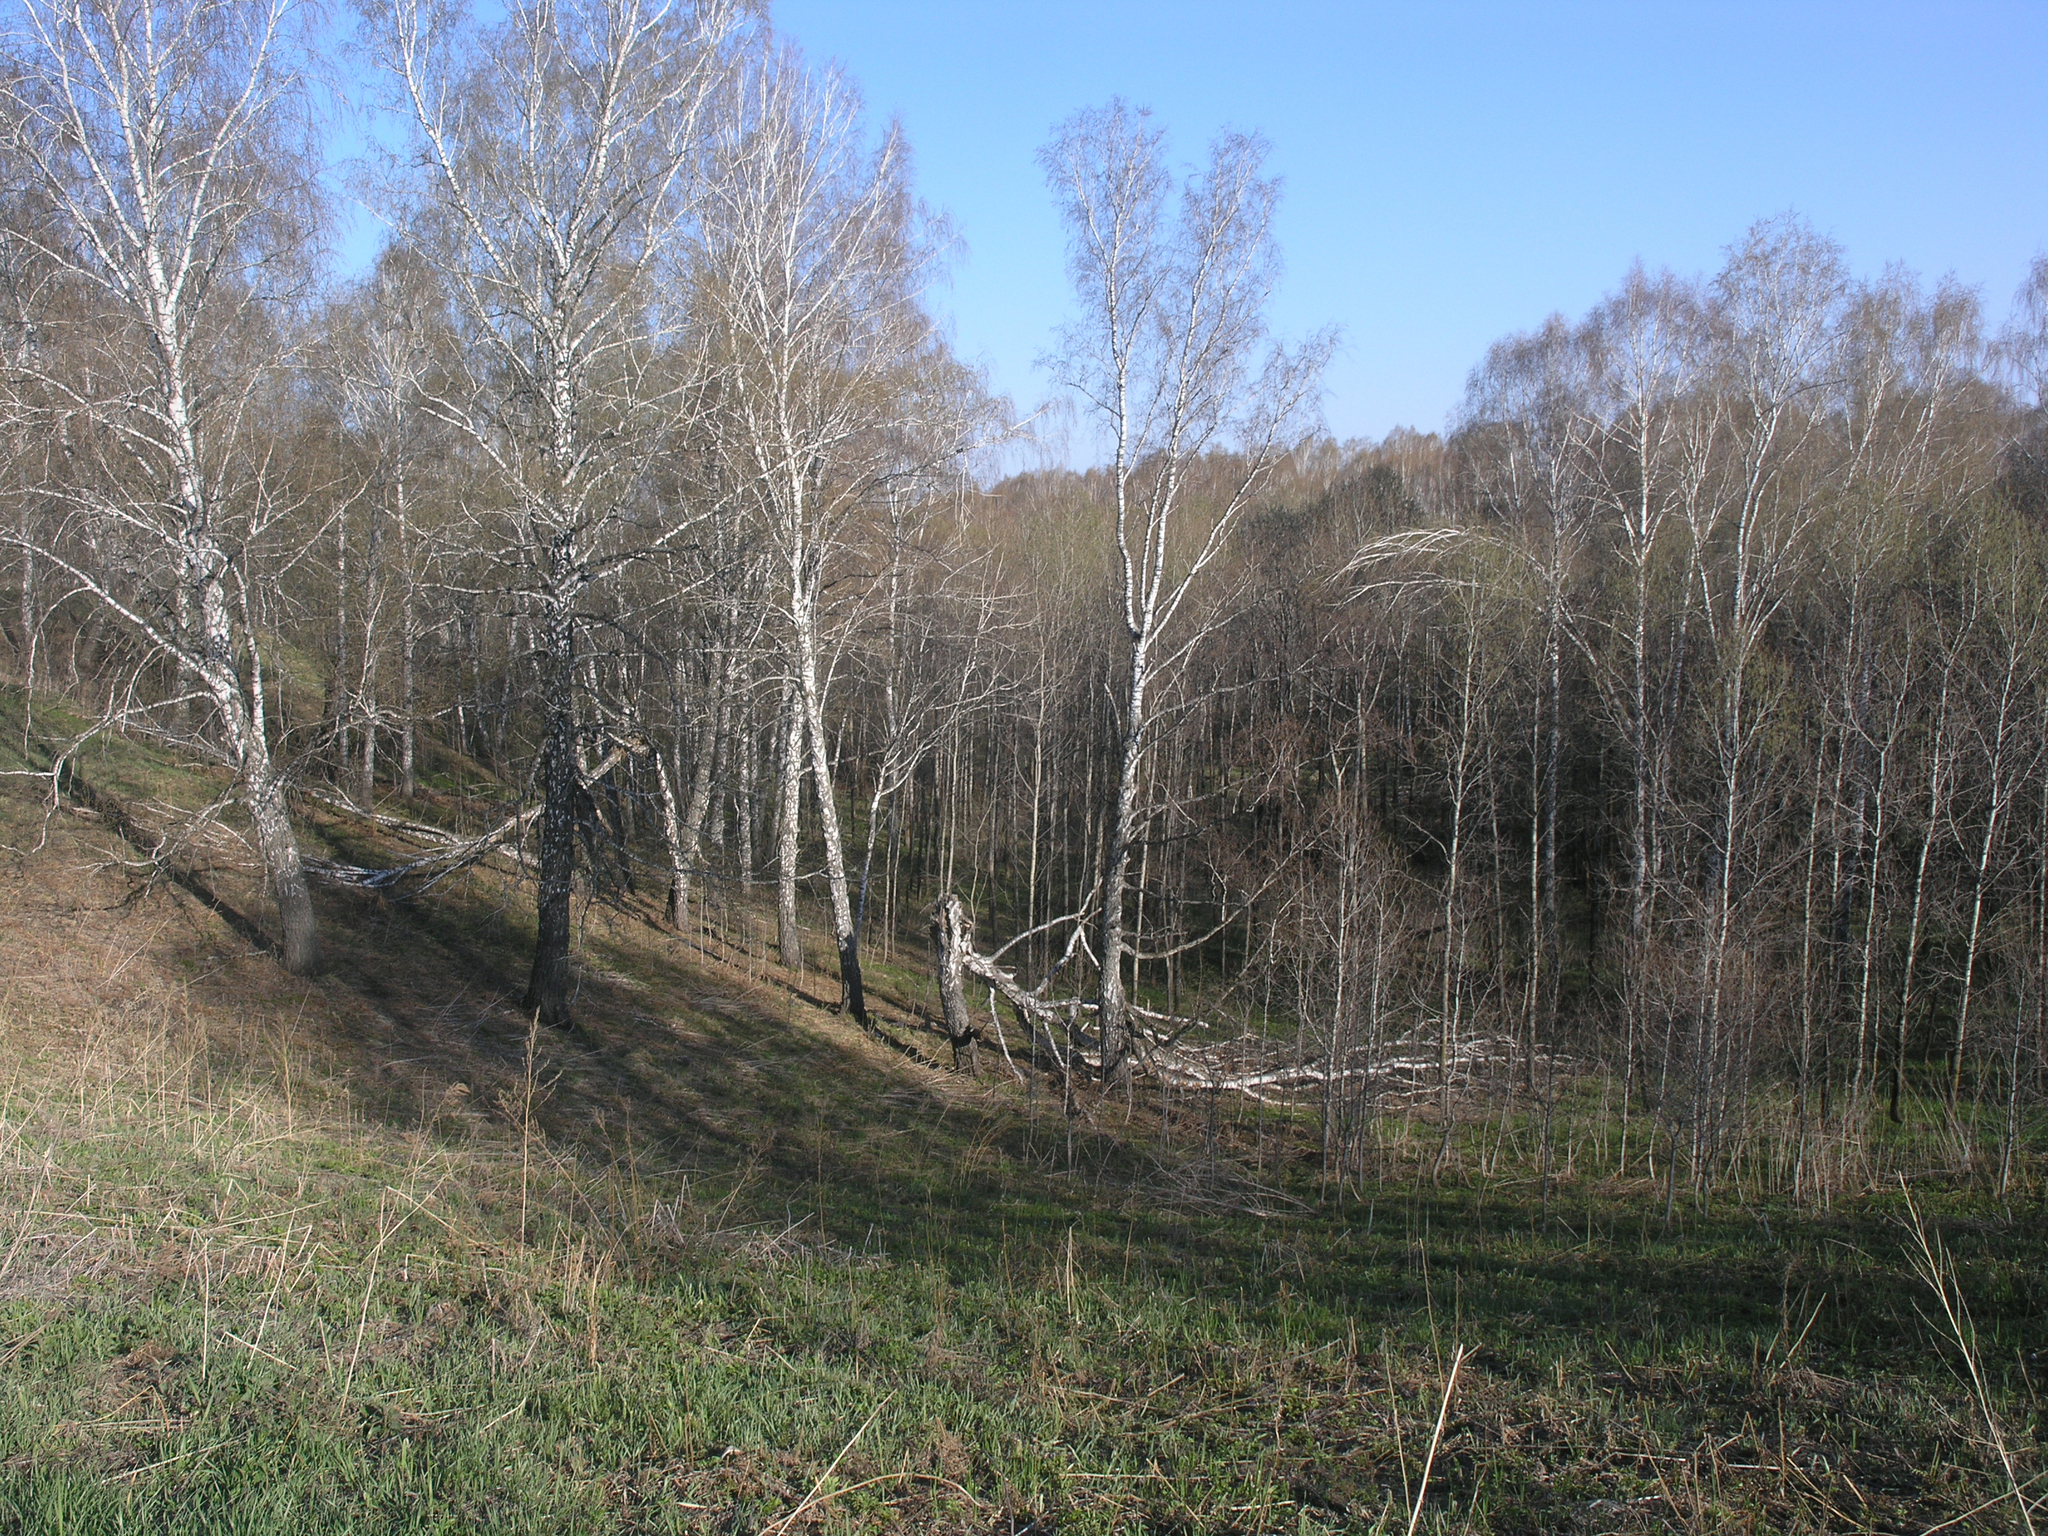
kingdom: Plantae
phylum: Tracheophyta
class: Magnoliopsida
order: Malpighiales
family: Salicaceae
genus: Populus
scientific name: Populus tremula
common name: European aspen
